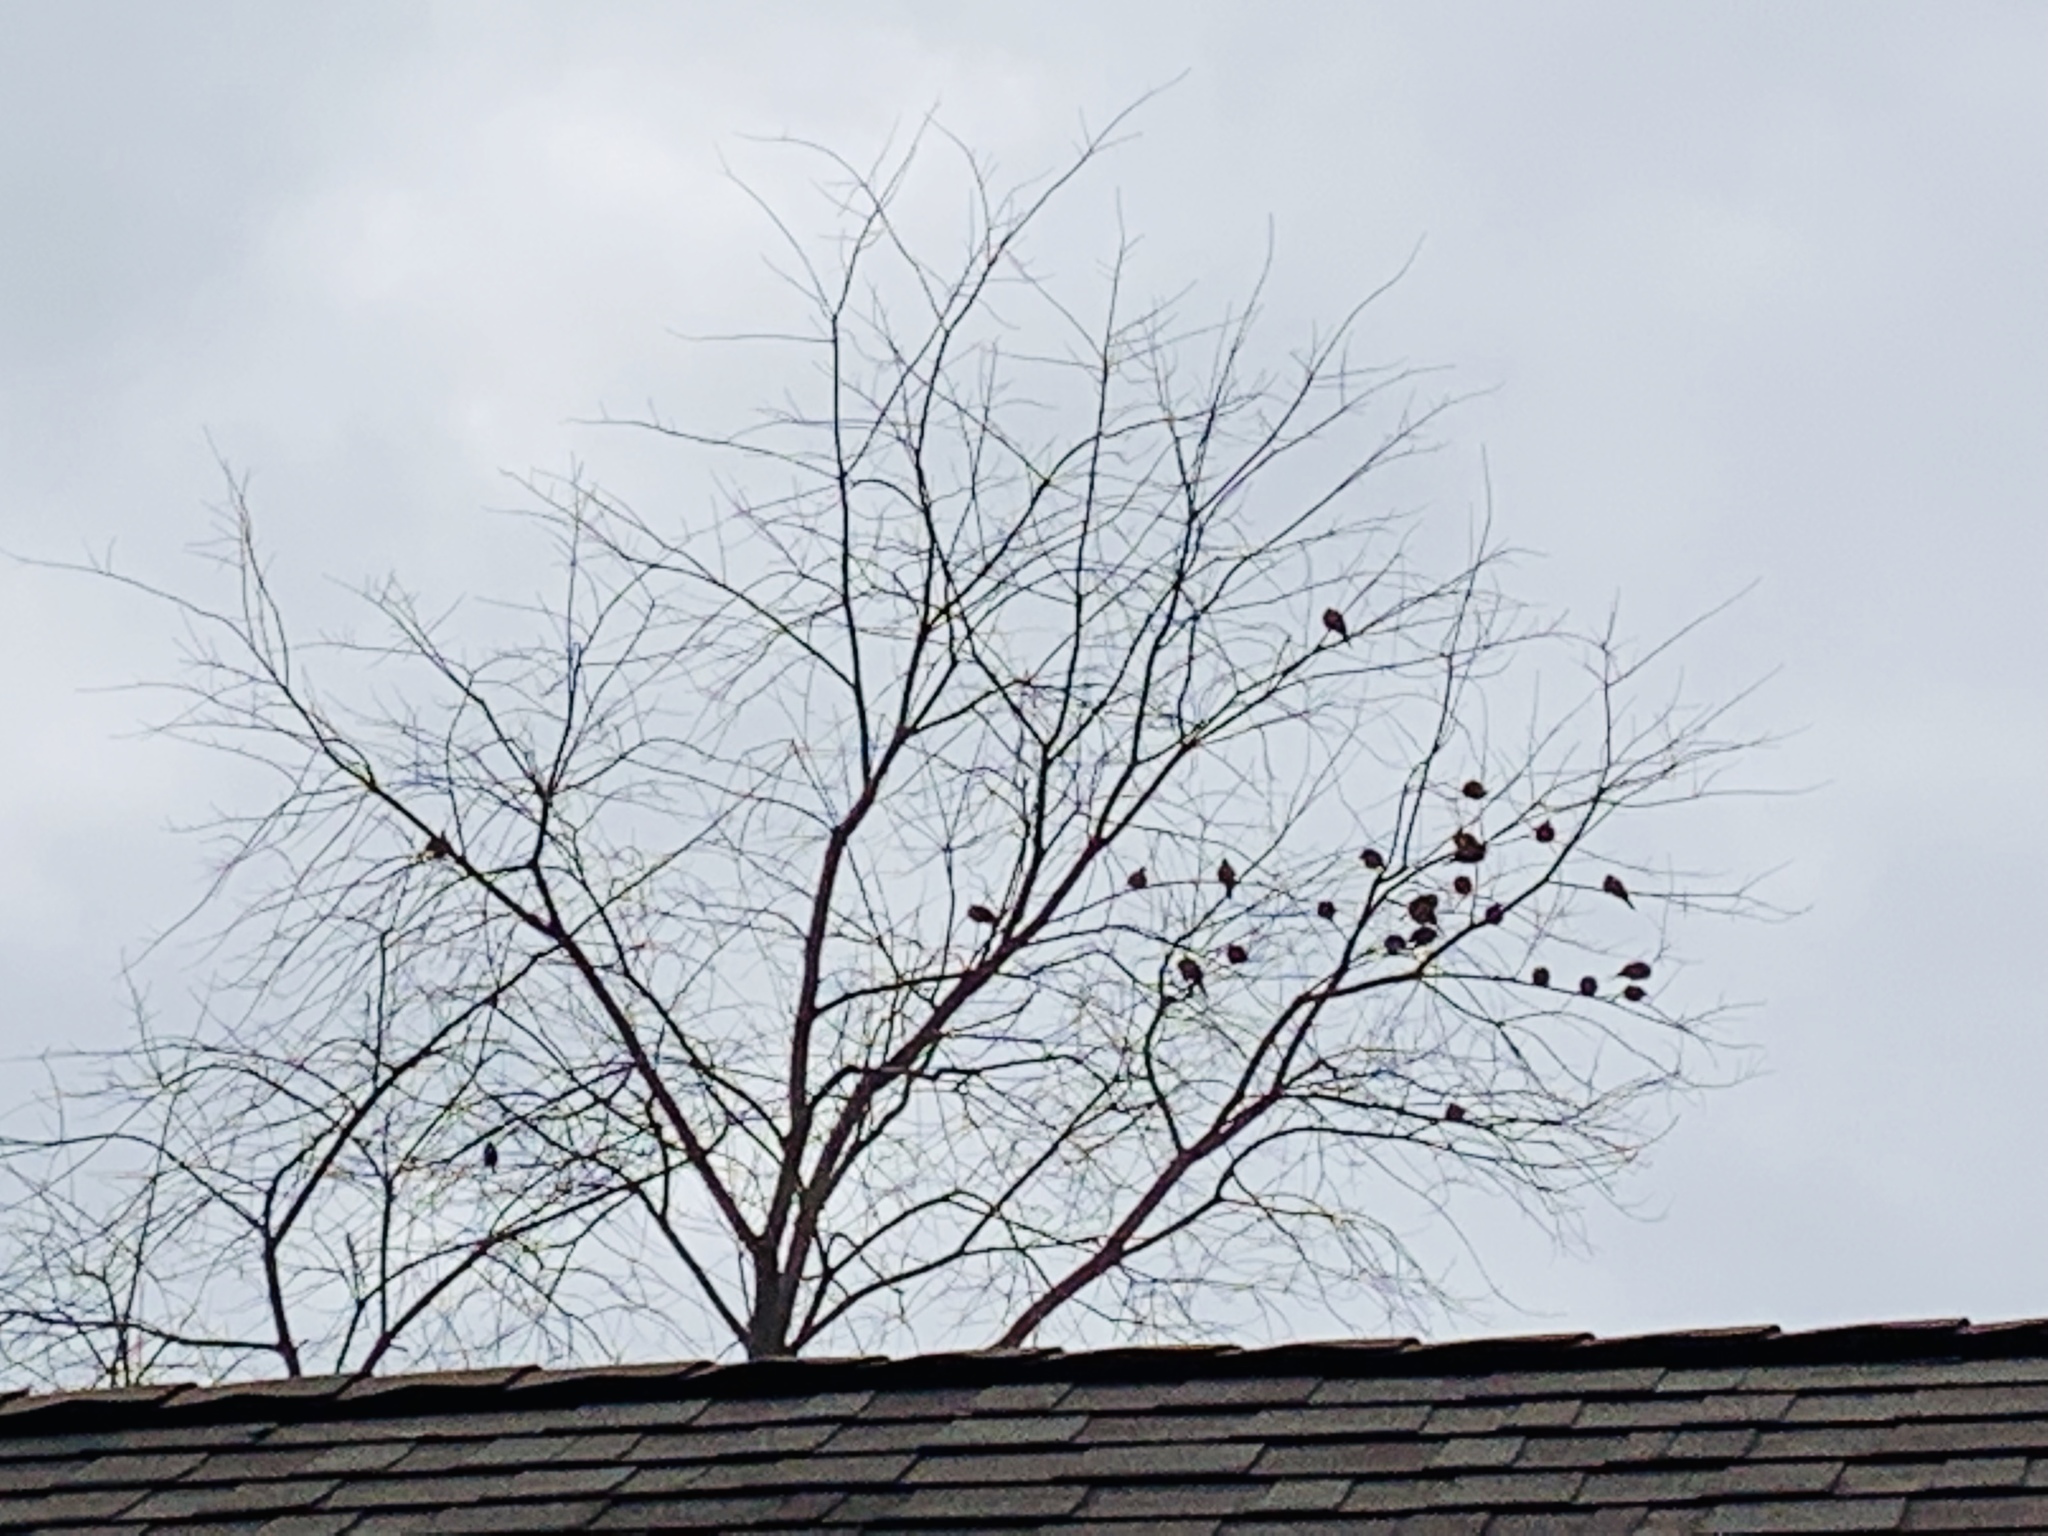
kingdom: Animalia
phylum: Chordata
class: Aves
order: Columbiformes
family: Columbidae
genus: Zenaida
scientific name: Zenaida macroura
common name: Mourning dove
